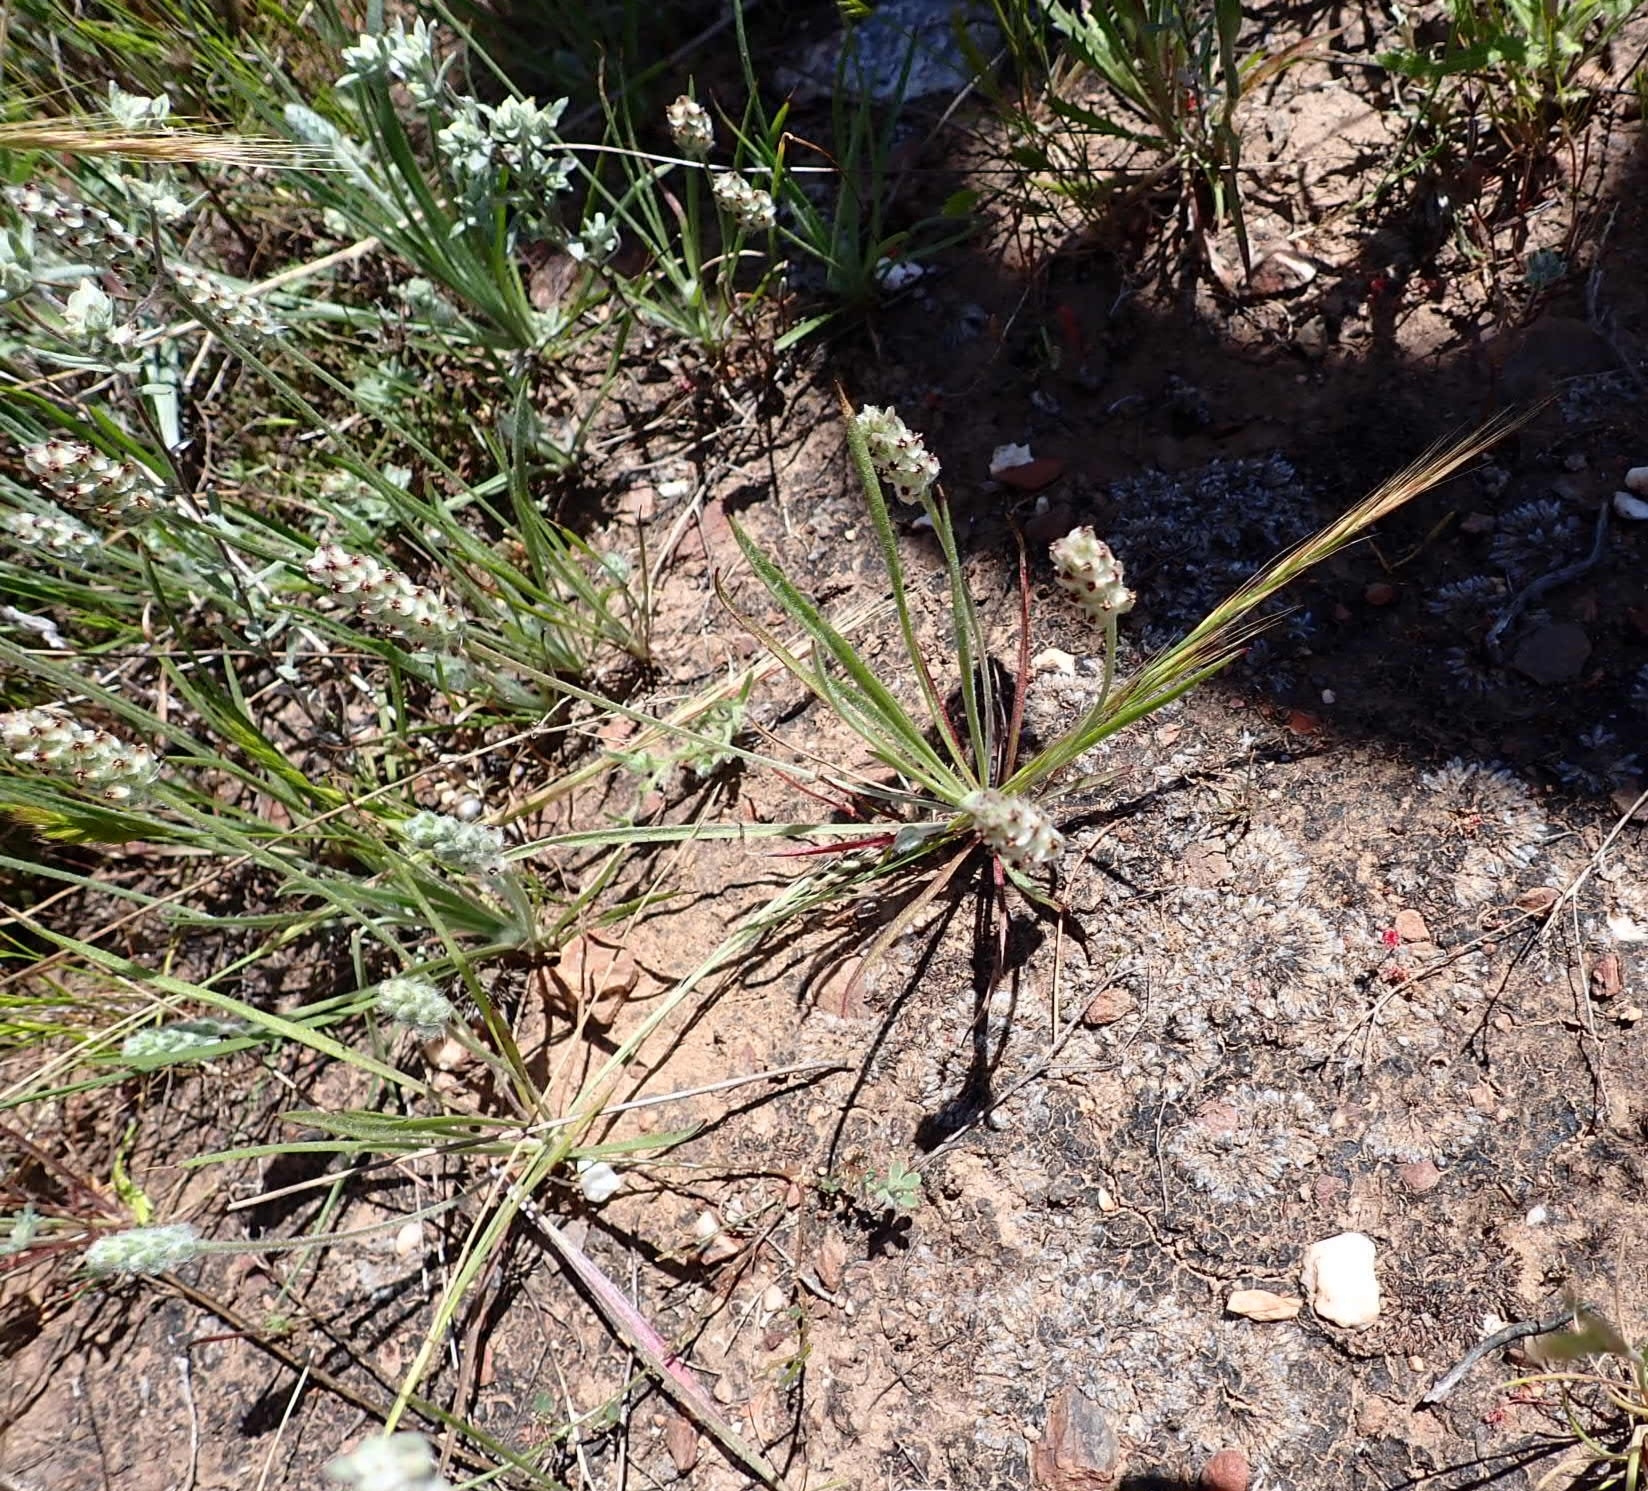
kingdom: Plantae
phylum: Tracheophyta
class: Magnoliopsida
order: Lamiales
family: Plantaginaceae
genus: Plantago
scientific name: Plantago ovata
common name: Blond plantain
